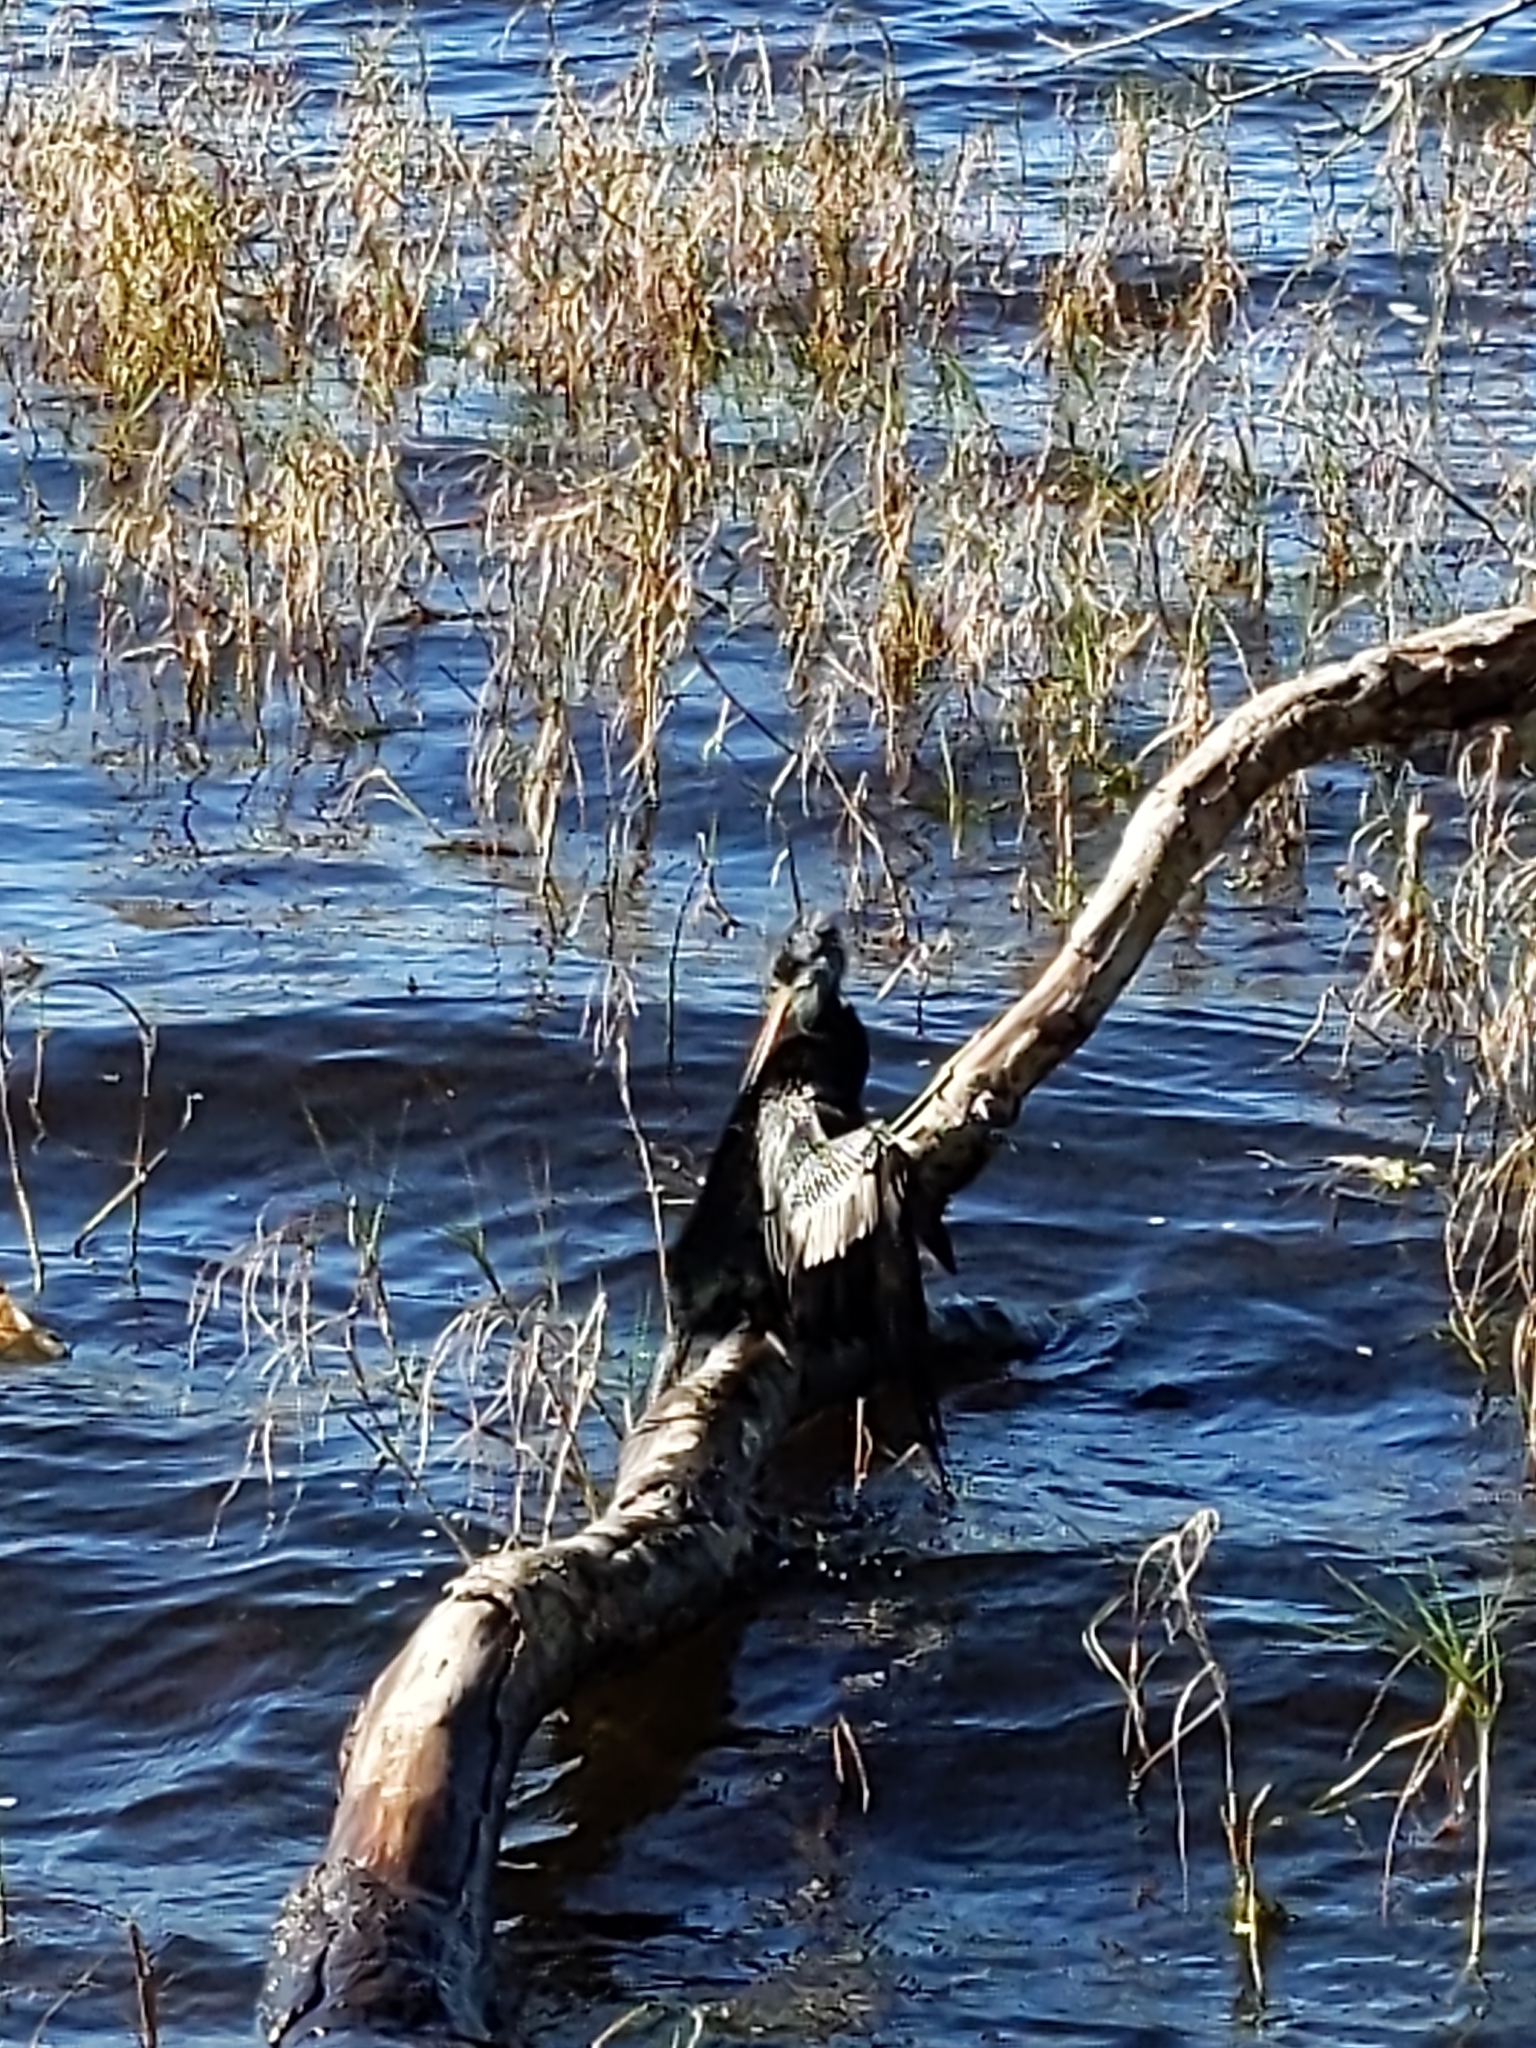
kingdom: Animalia
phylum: Chordata
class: Aves
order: Suliformes
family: Anhingidae
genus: Anhinga
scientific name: Anhinga anhinga
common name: Anhinga
